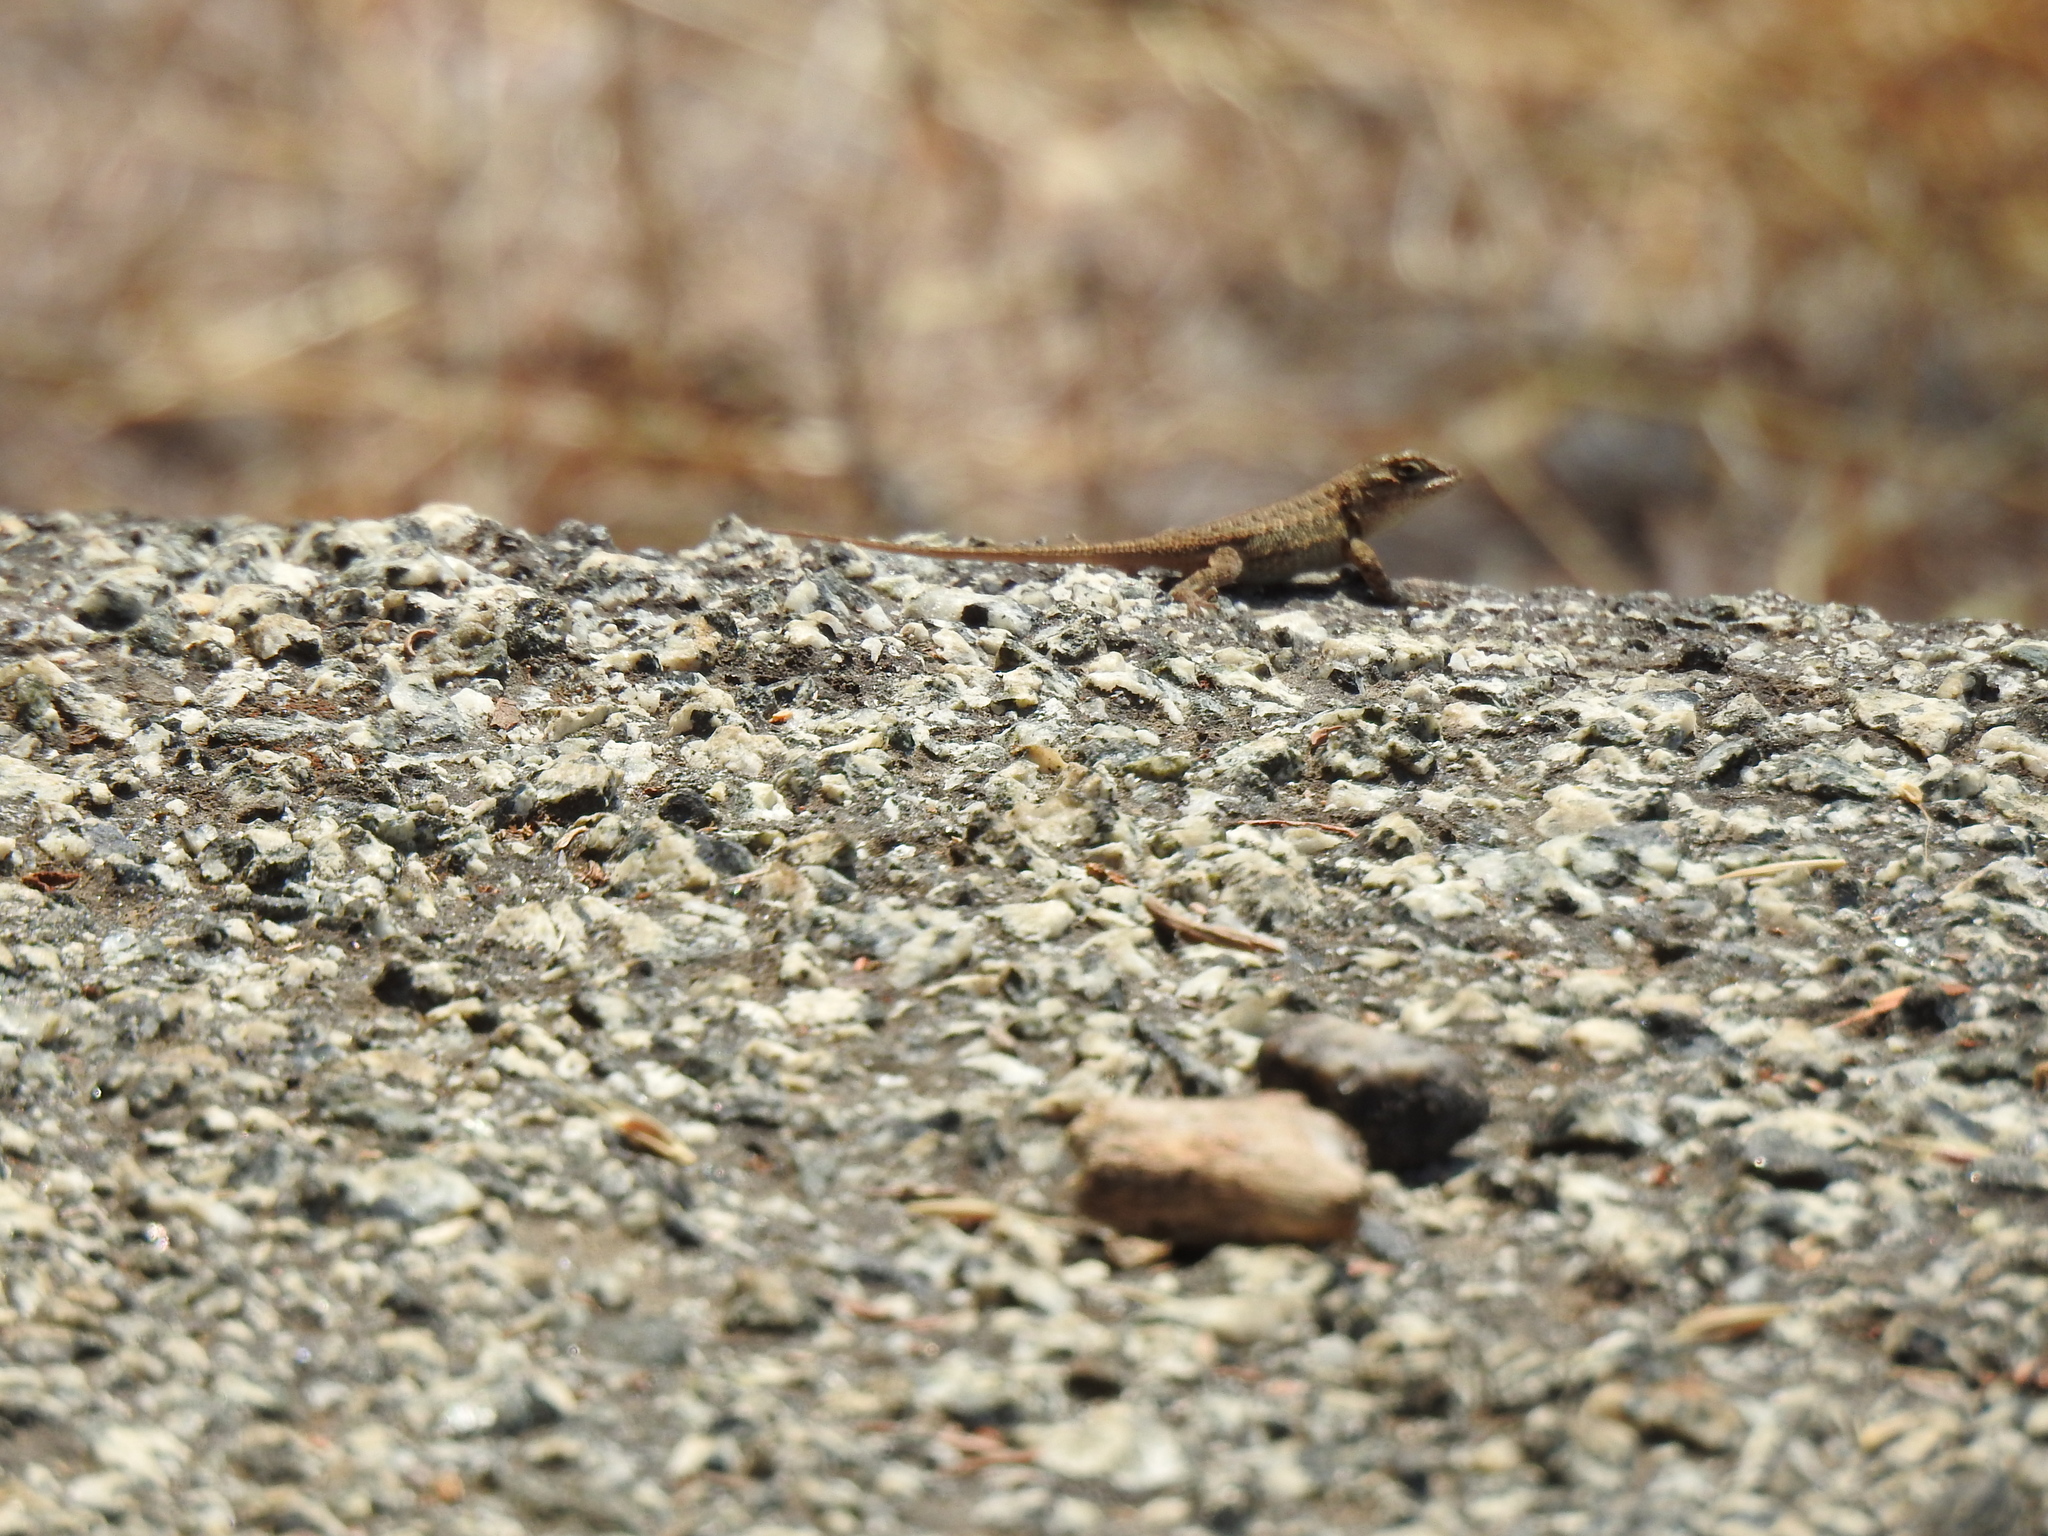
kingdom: Animalia
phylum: Chordata
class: Squamata
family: Phrynosomatidae
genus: Sceloporus
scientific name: Sceloporus occidentalis
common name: Western fence lizard
